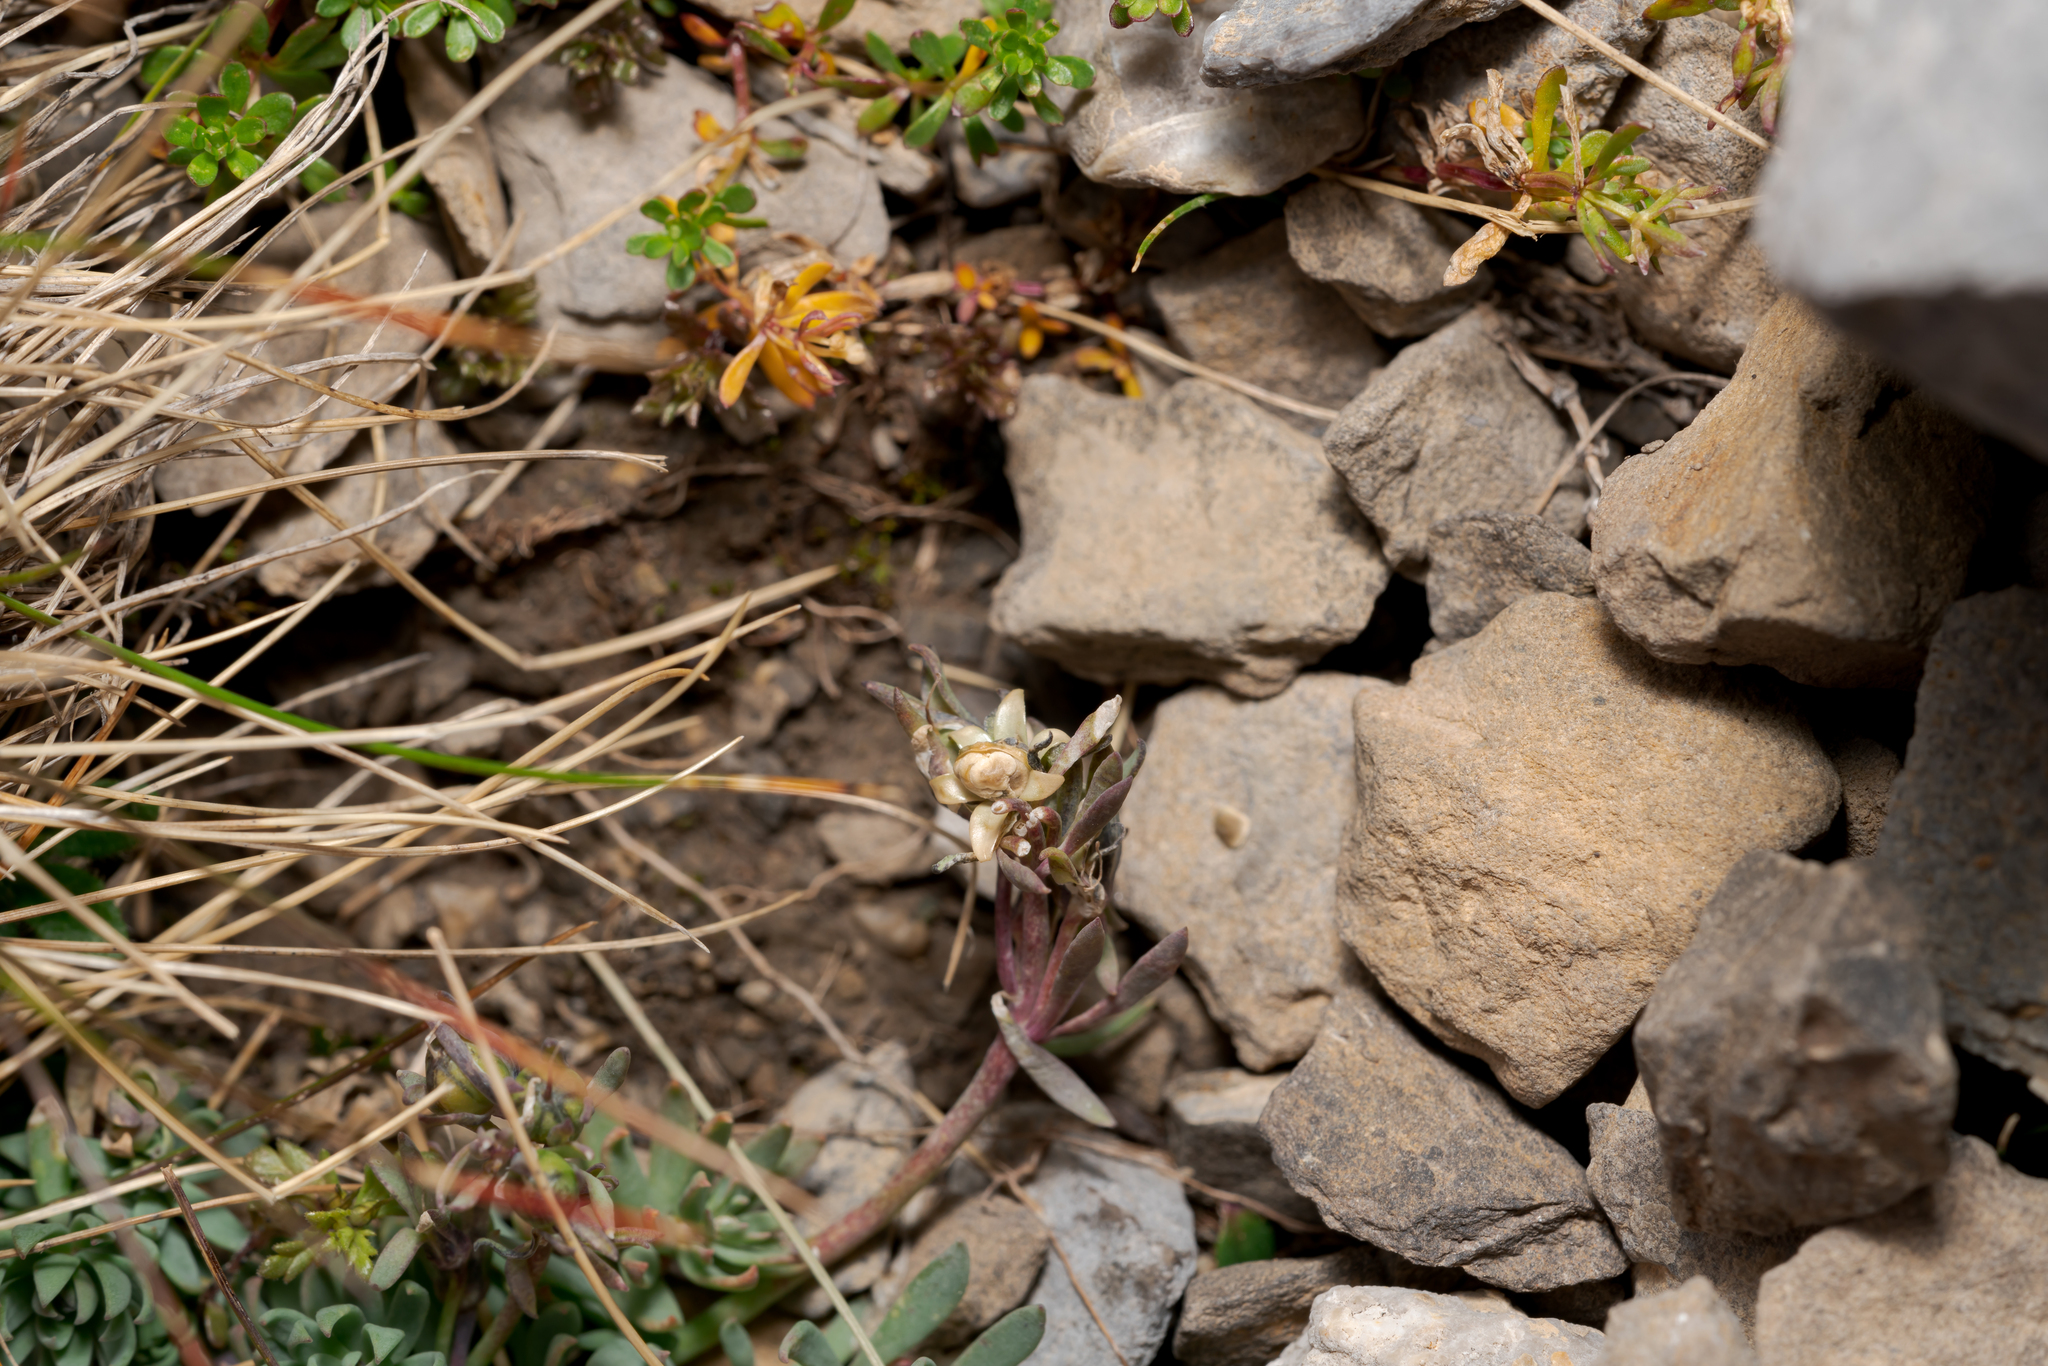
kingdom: Plantae
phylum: Tracheophyta
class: Magnoliopsida
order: Lamiales
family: Plantaginaceae
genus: Linaria
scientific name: Linaria alpina
